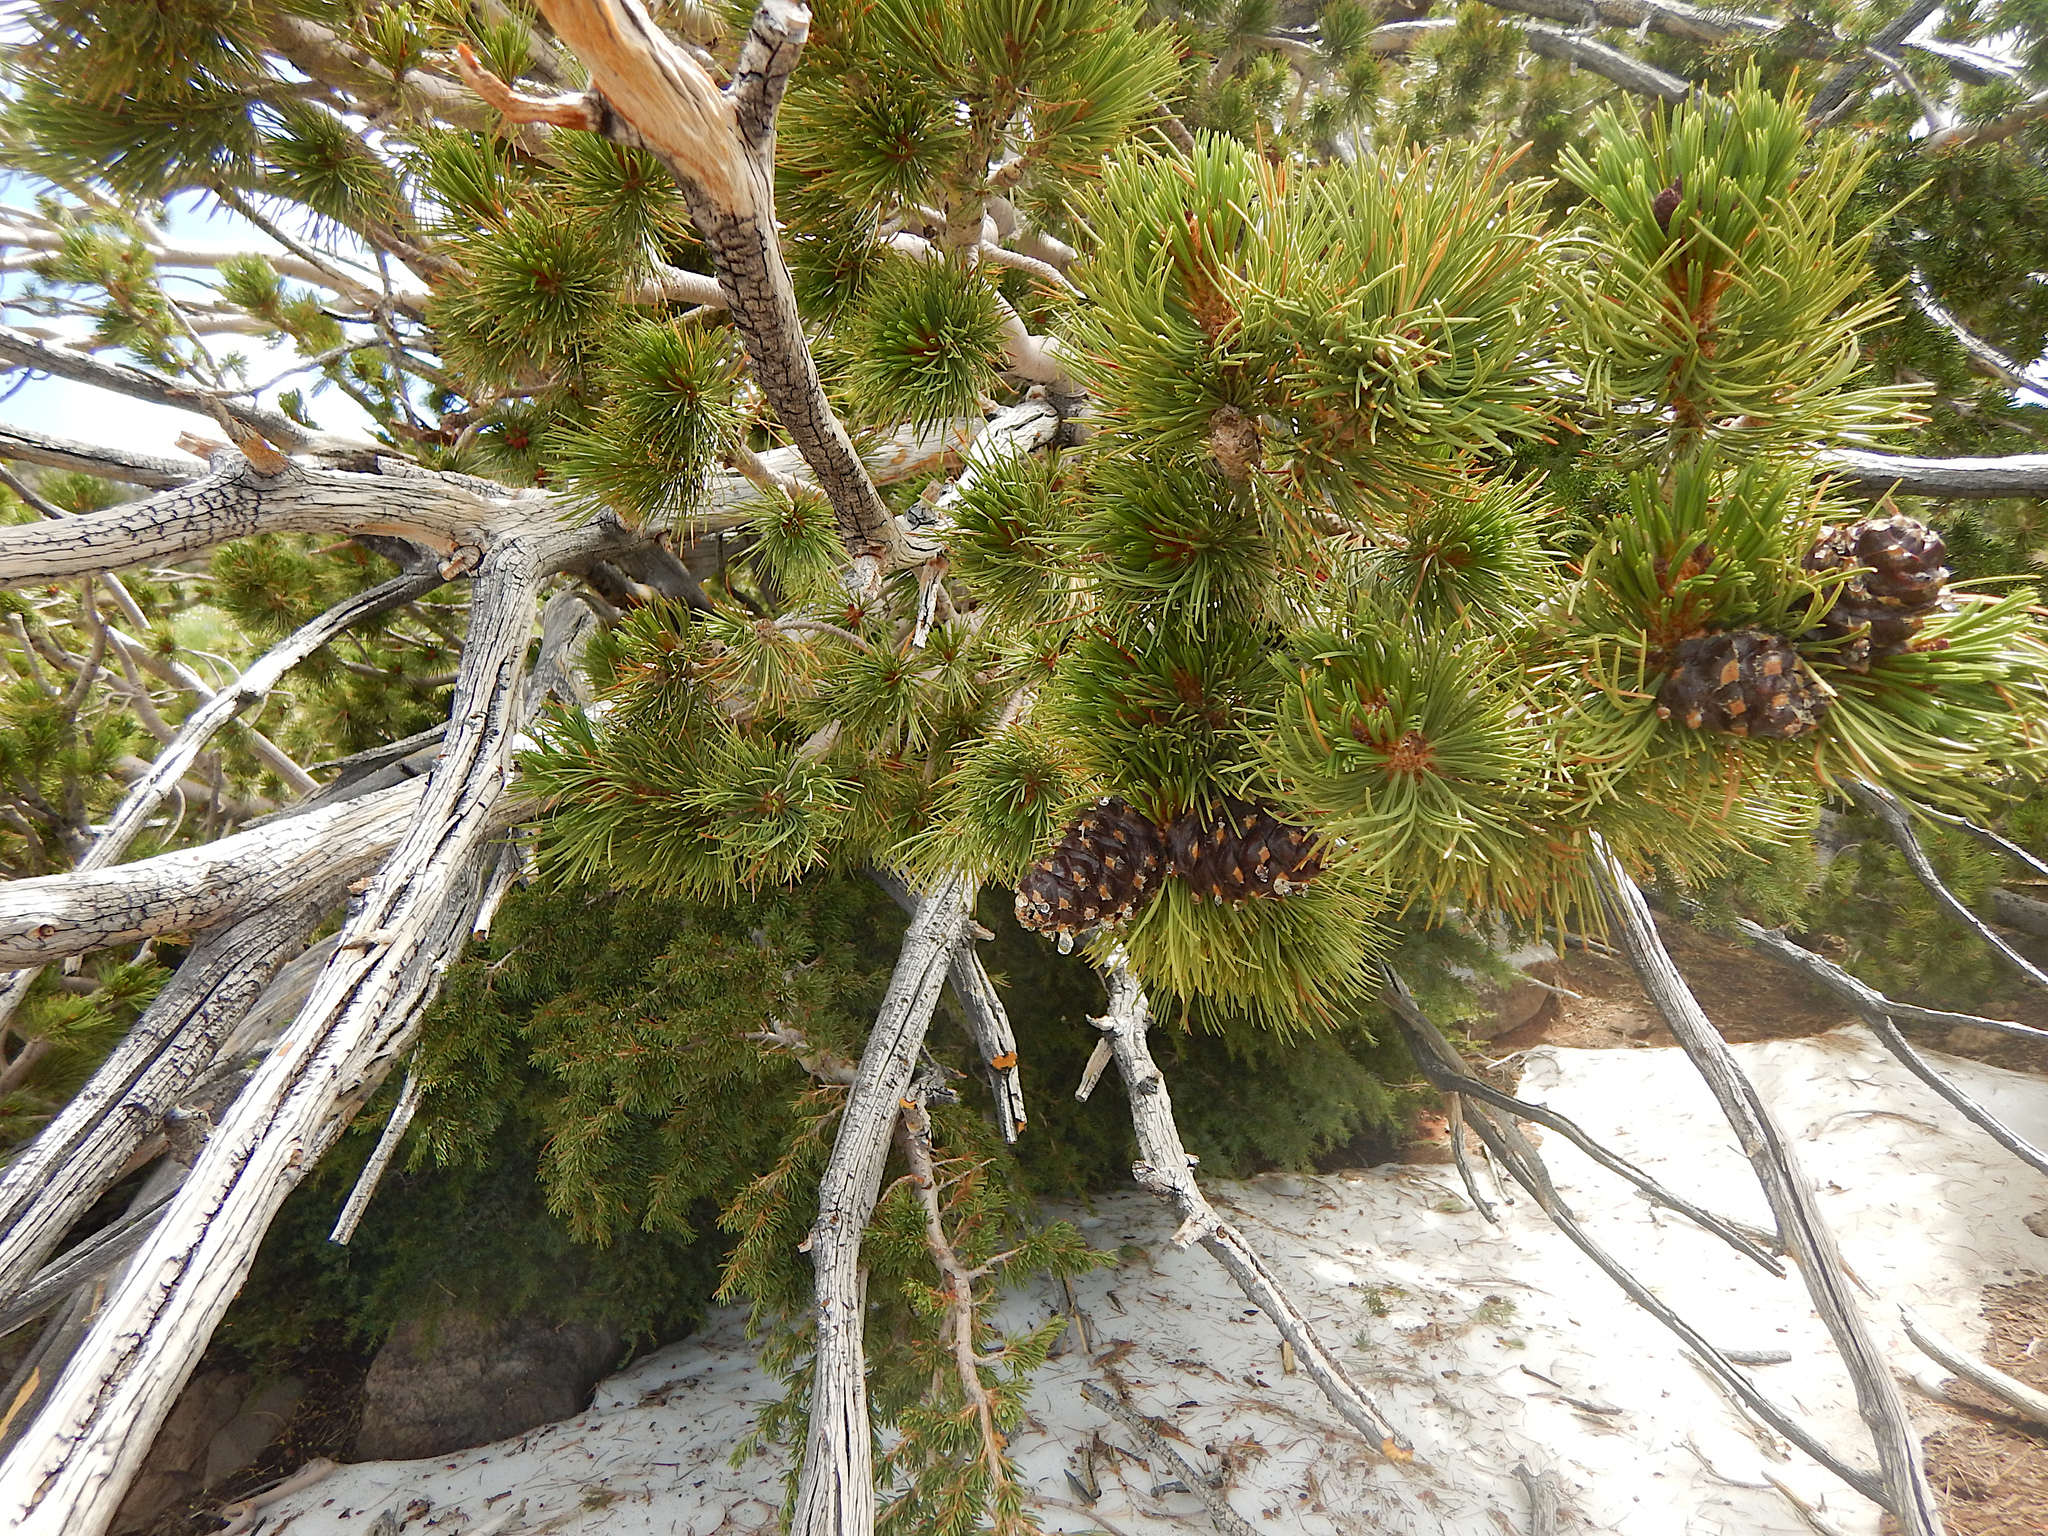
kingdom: Plantae
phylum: Tracheophyta
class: Pinopsida
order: Pinales
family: Pinaceae
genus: Pinus
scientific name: Pinus albicaulis
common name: Whitebark pine
